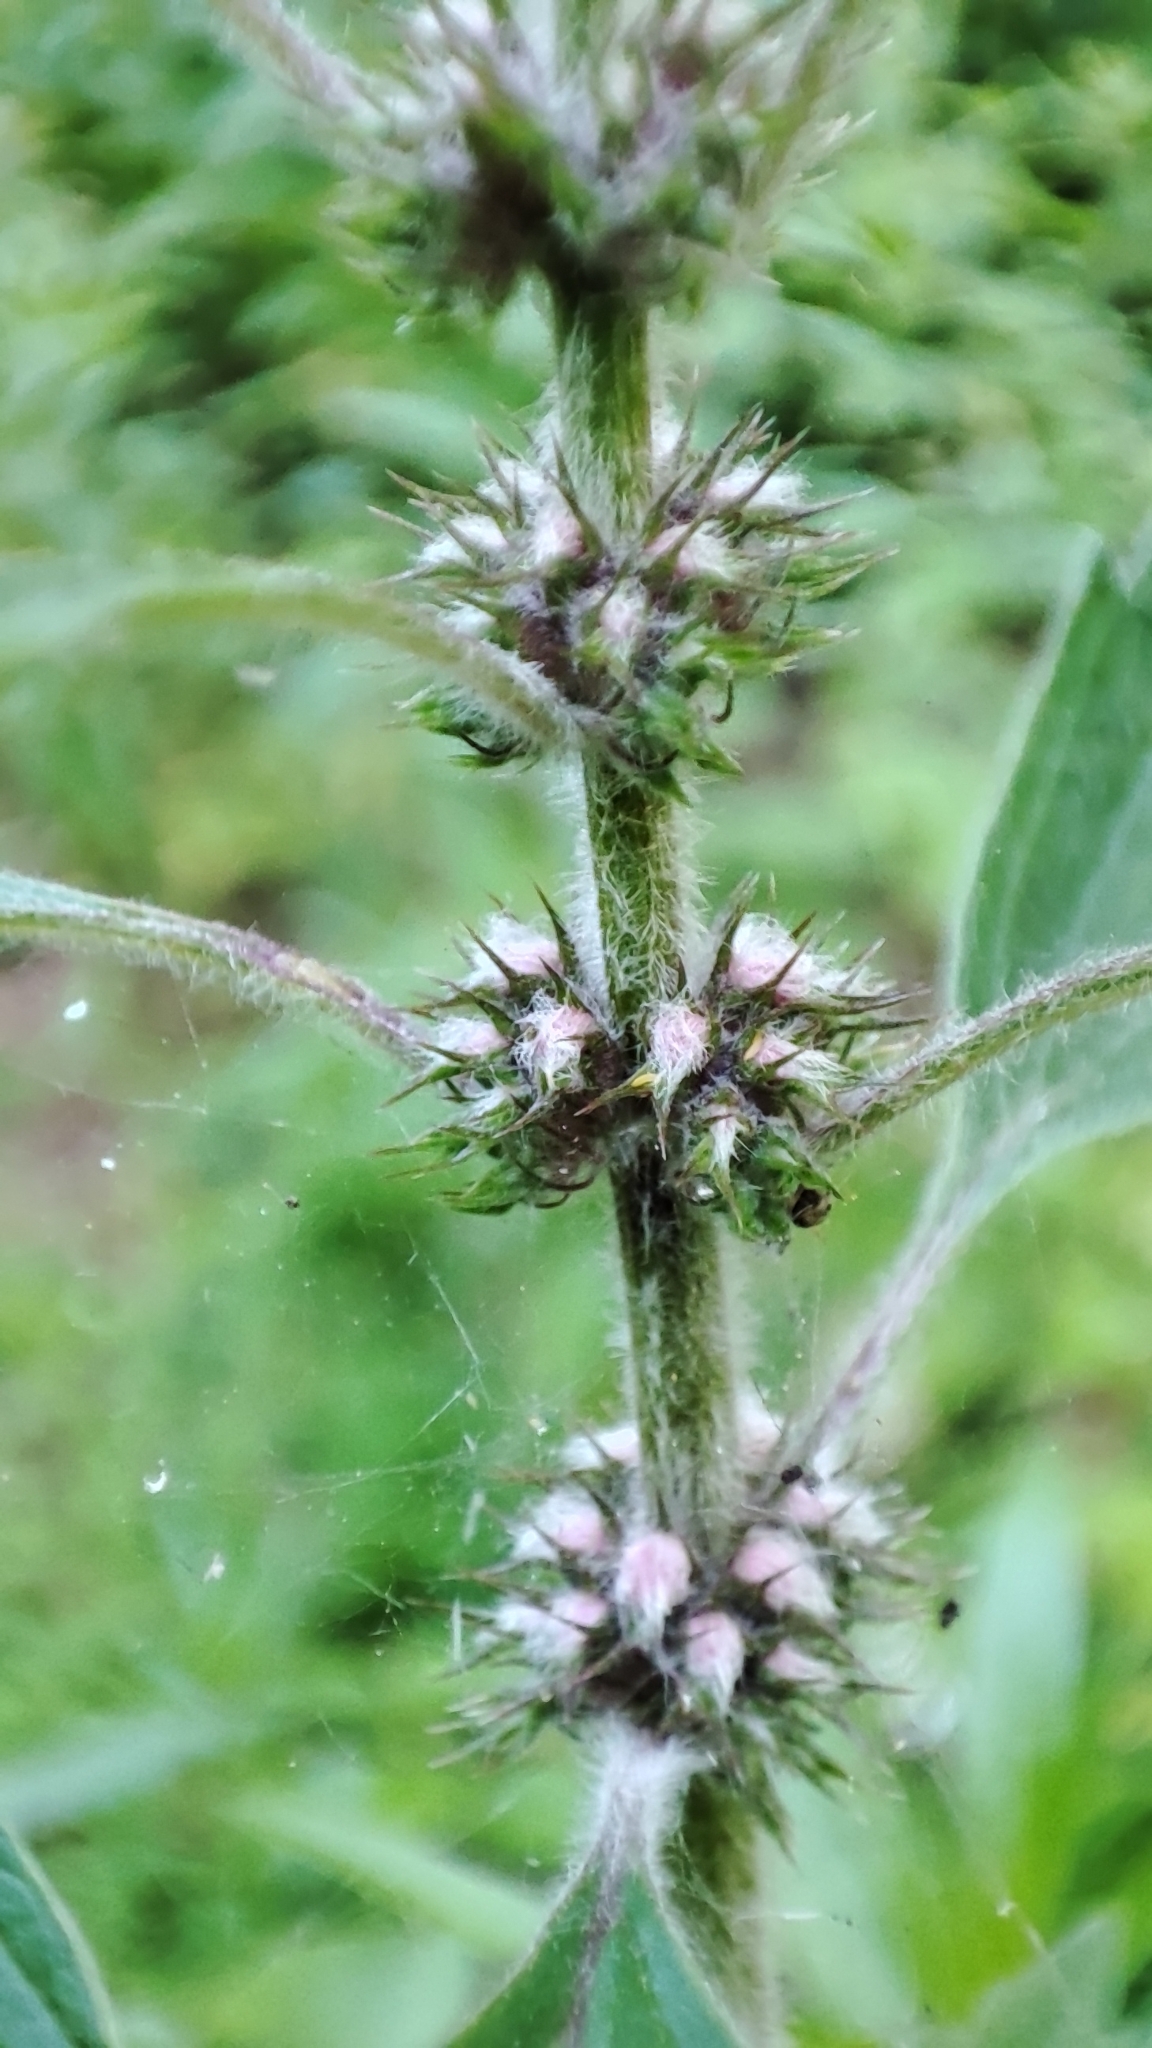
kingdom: Plantae
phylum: Tracheophyta
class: Magnoliopsida
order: Lamiales
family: Lamiaceae
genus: Leonurus
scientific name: Leonurus quinquelobatus
